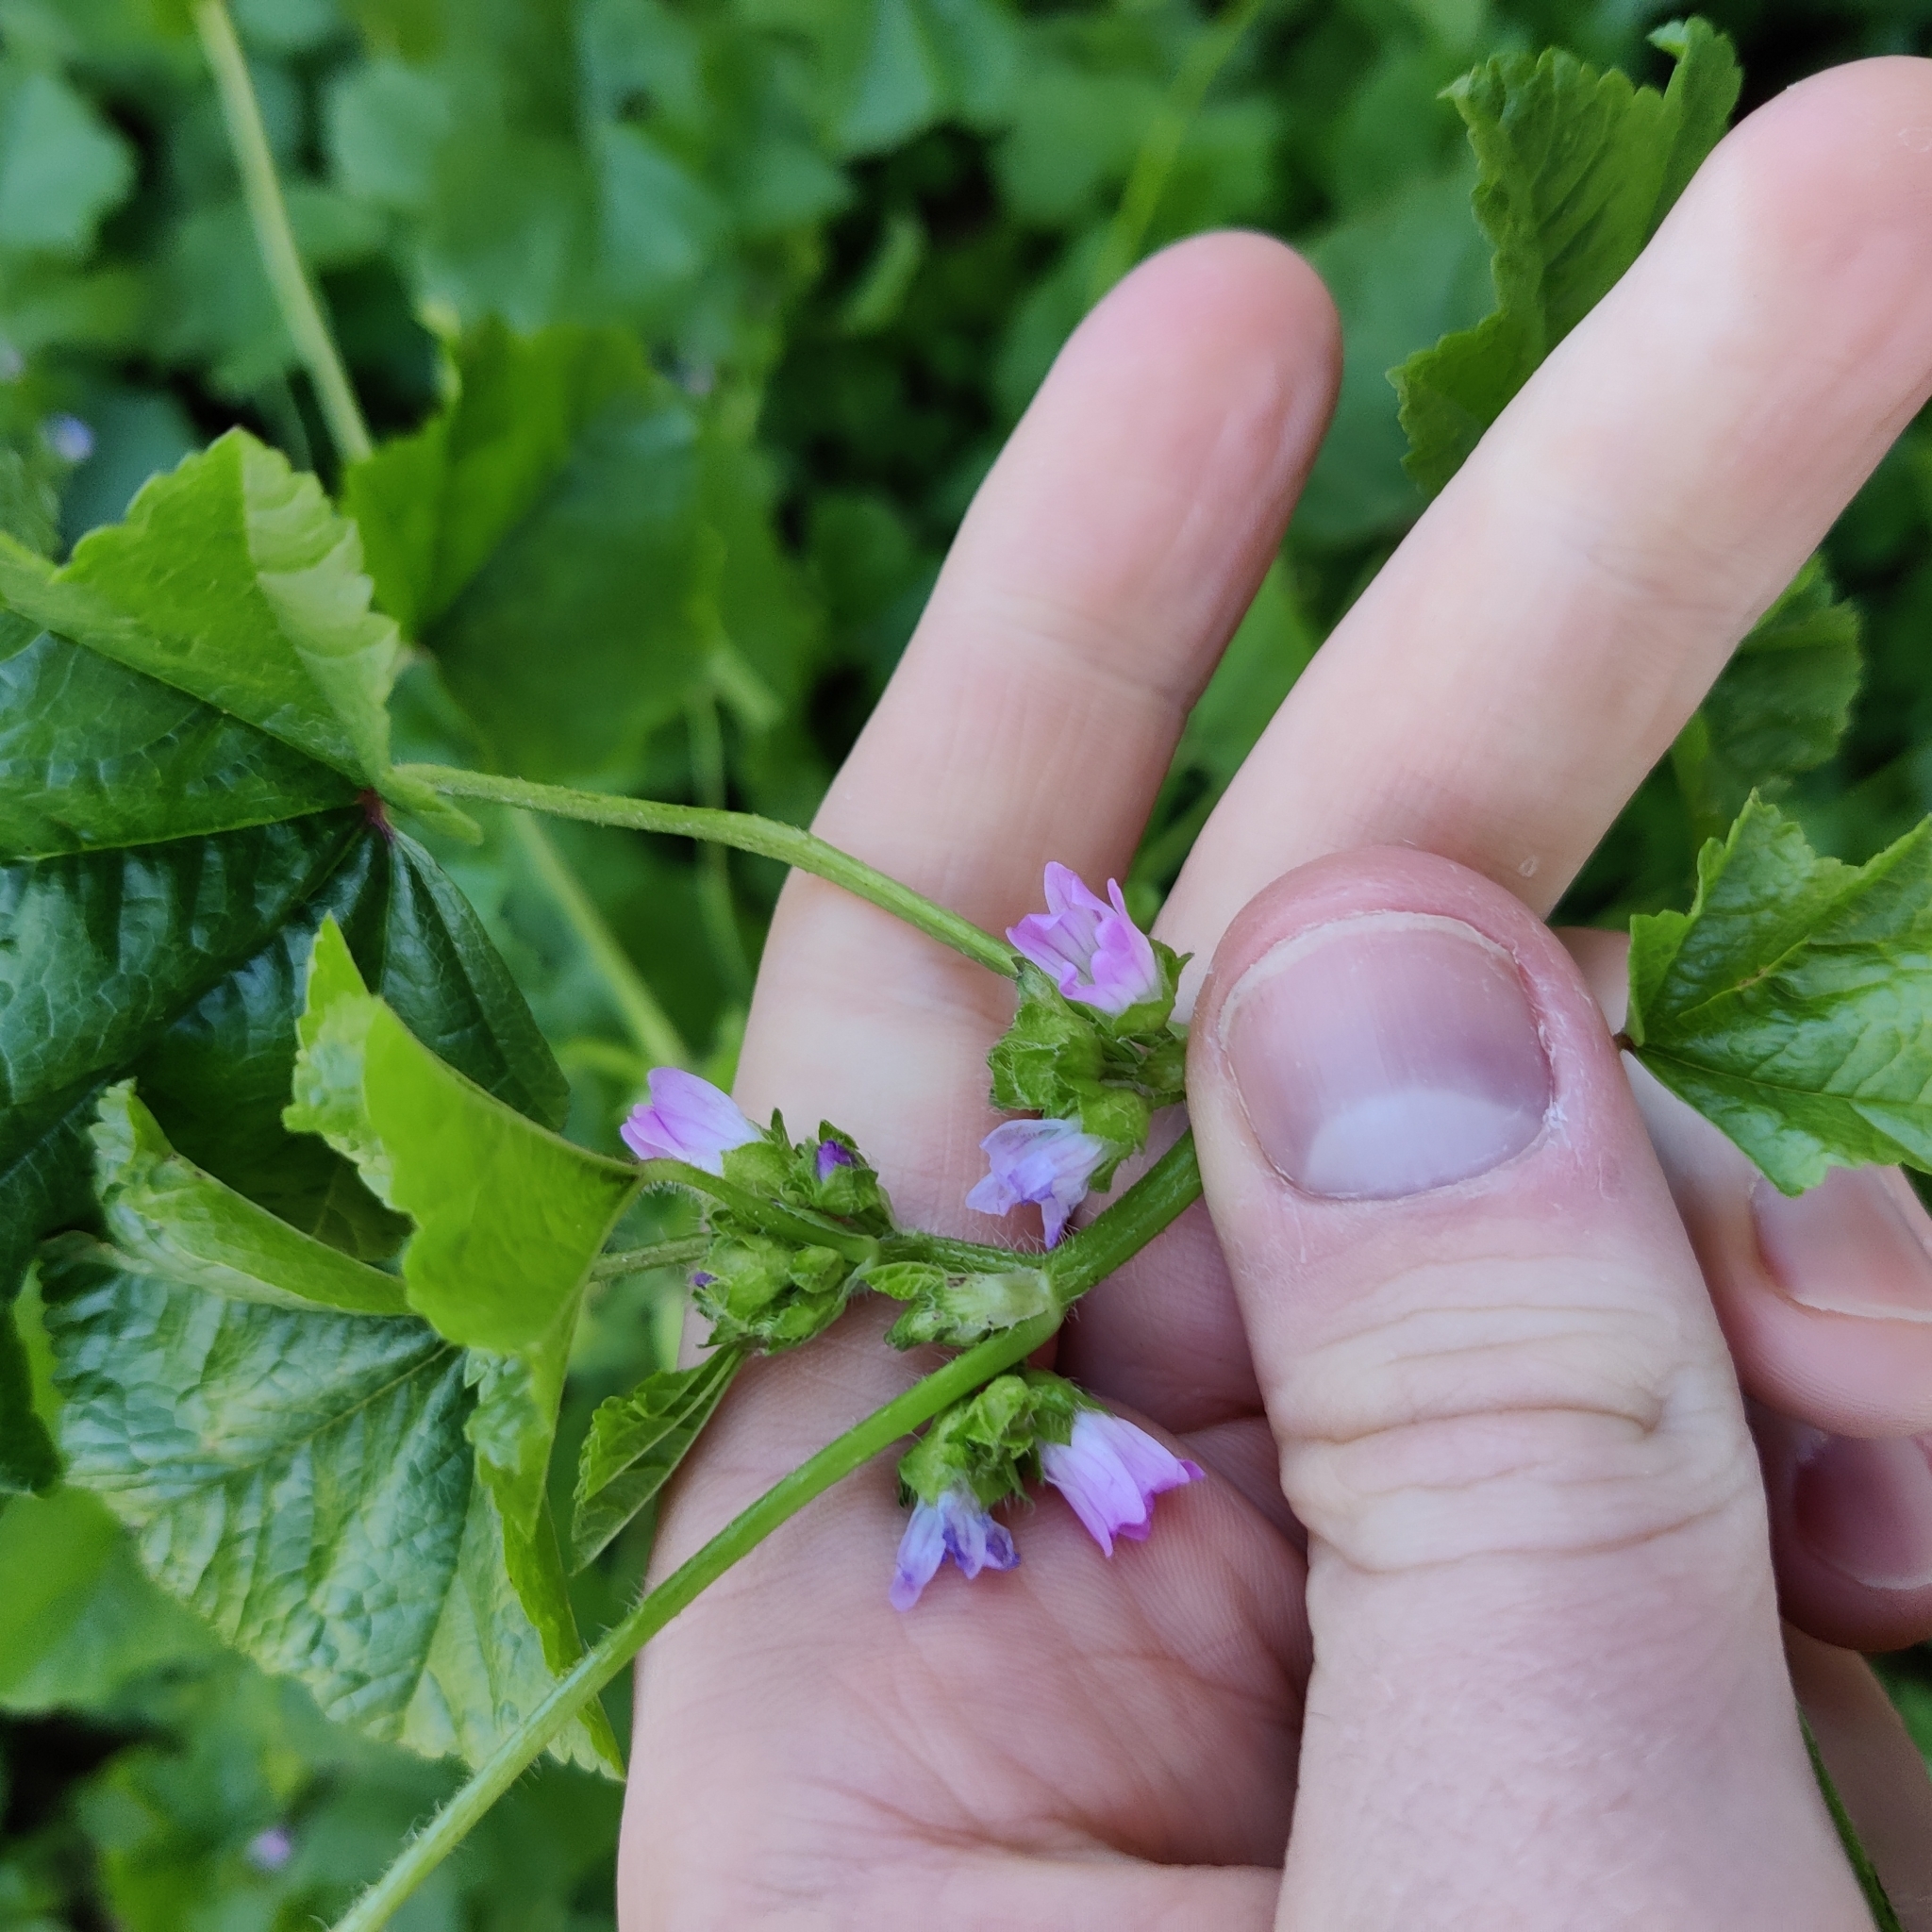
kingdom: Plantae
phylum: Tracheophyta
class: Magnoliopsida
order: Malvales
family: Malvaceae
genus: Malva
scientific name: Malva nicaeensis
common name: French mallow
